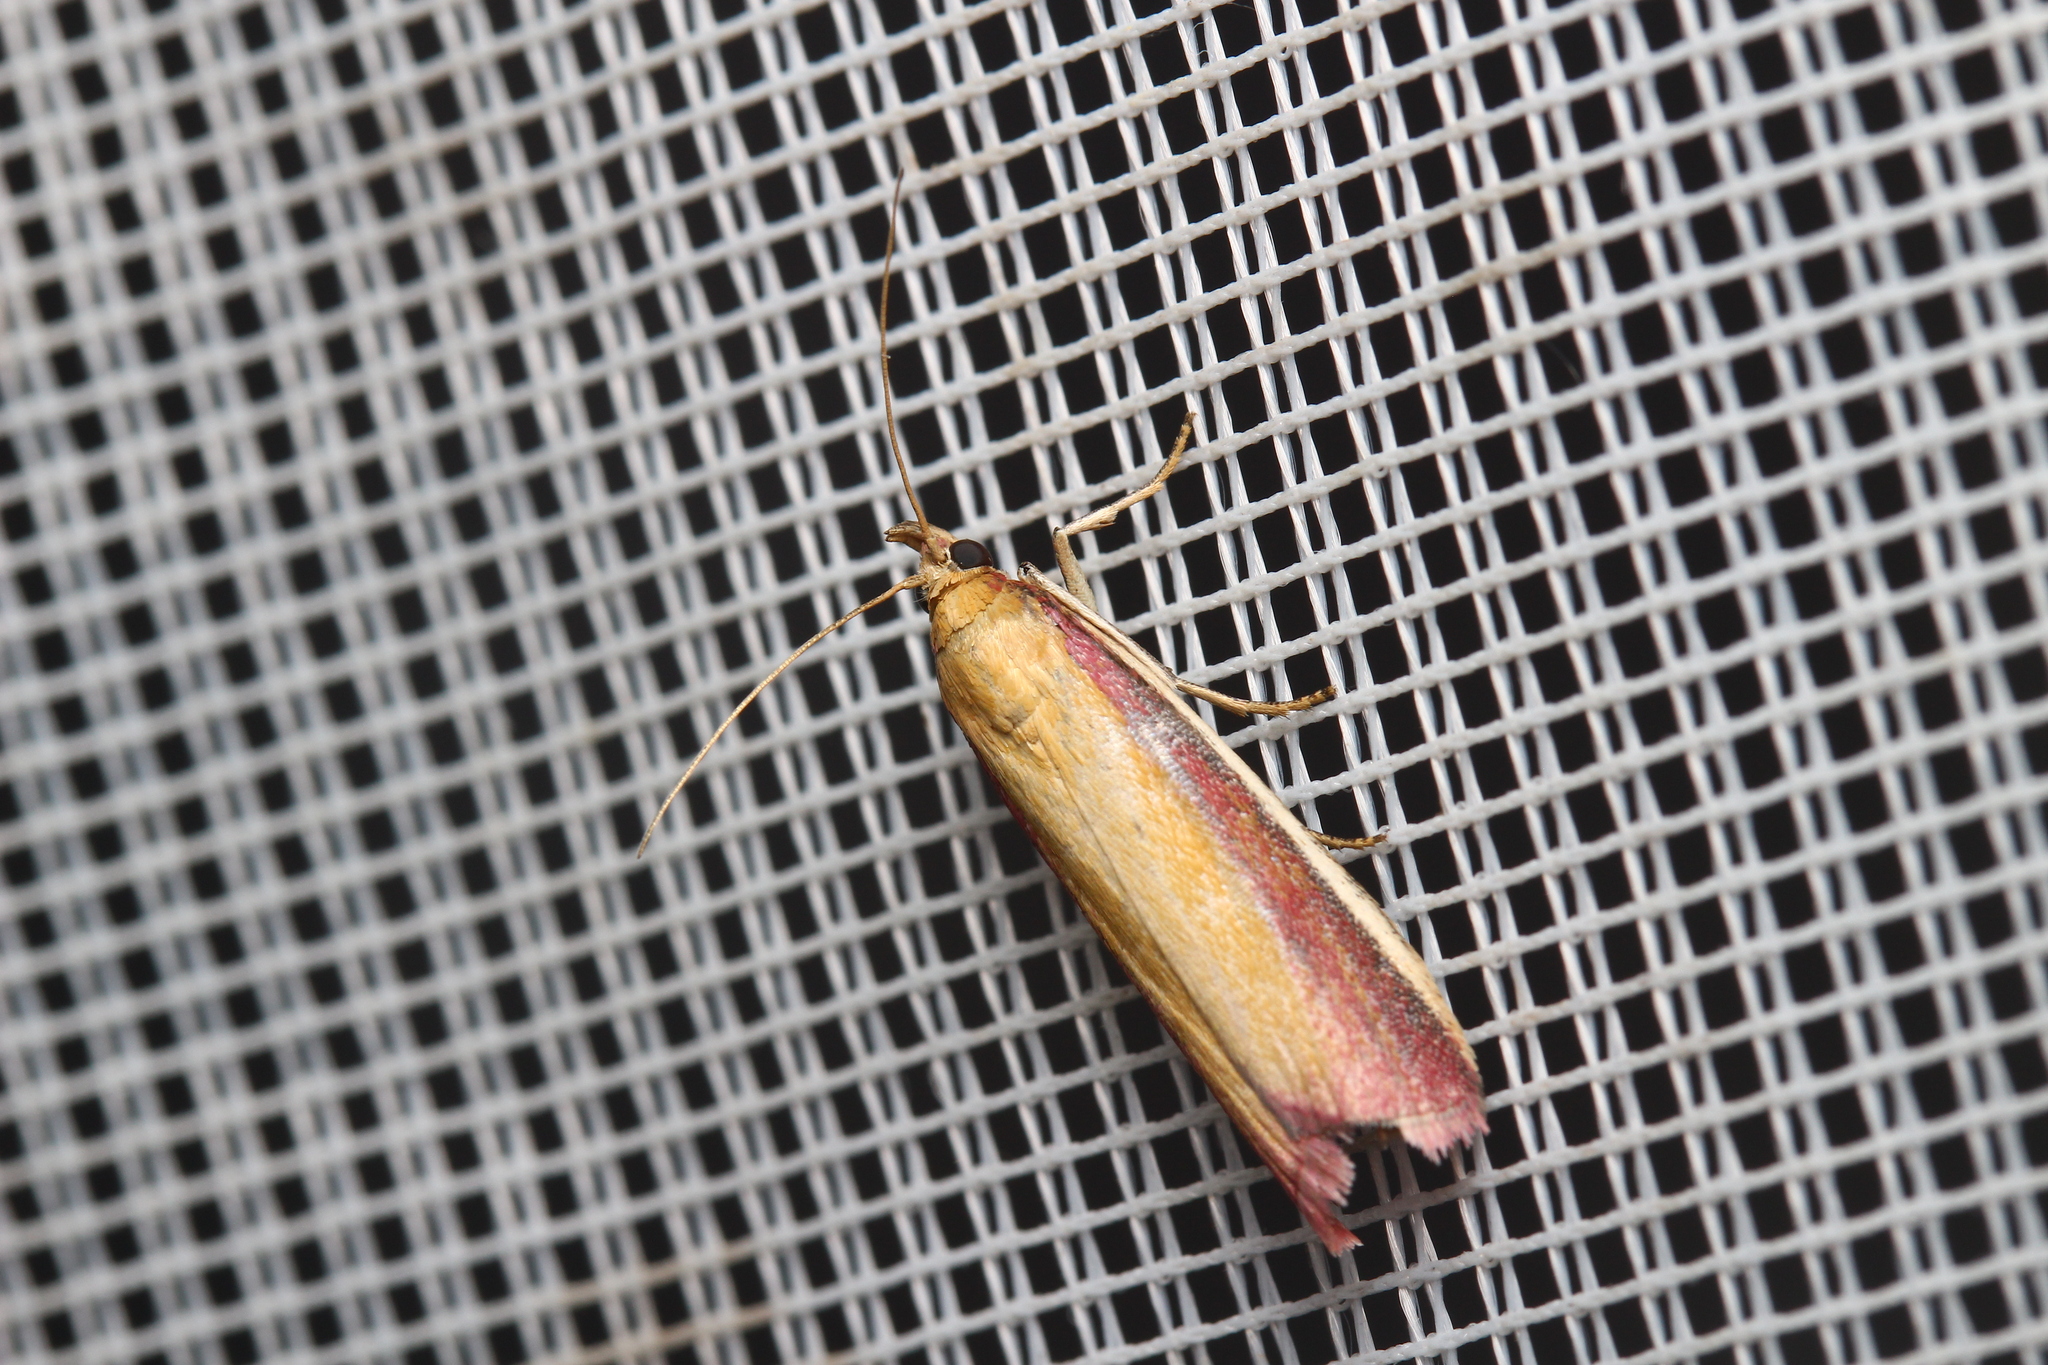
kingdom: Animalia
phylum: Arthropoda
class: Insecta
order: Lepidoptera
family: Pyralidae
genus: Oncocera
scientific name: Oncocera semirubella
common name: Rosy-striped knot-horn
